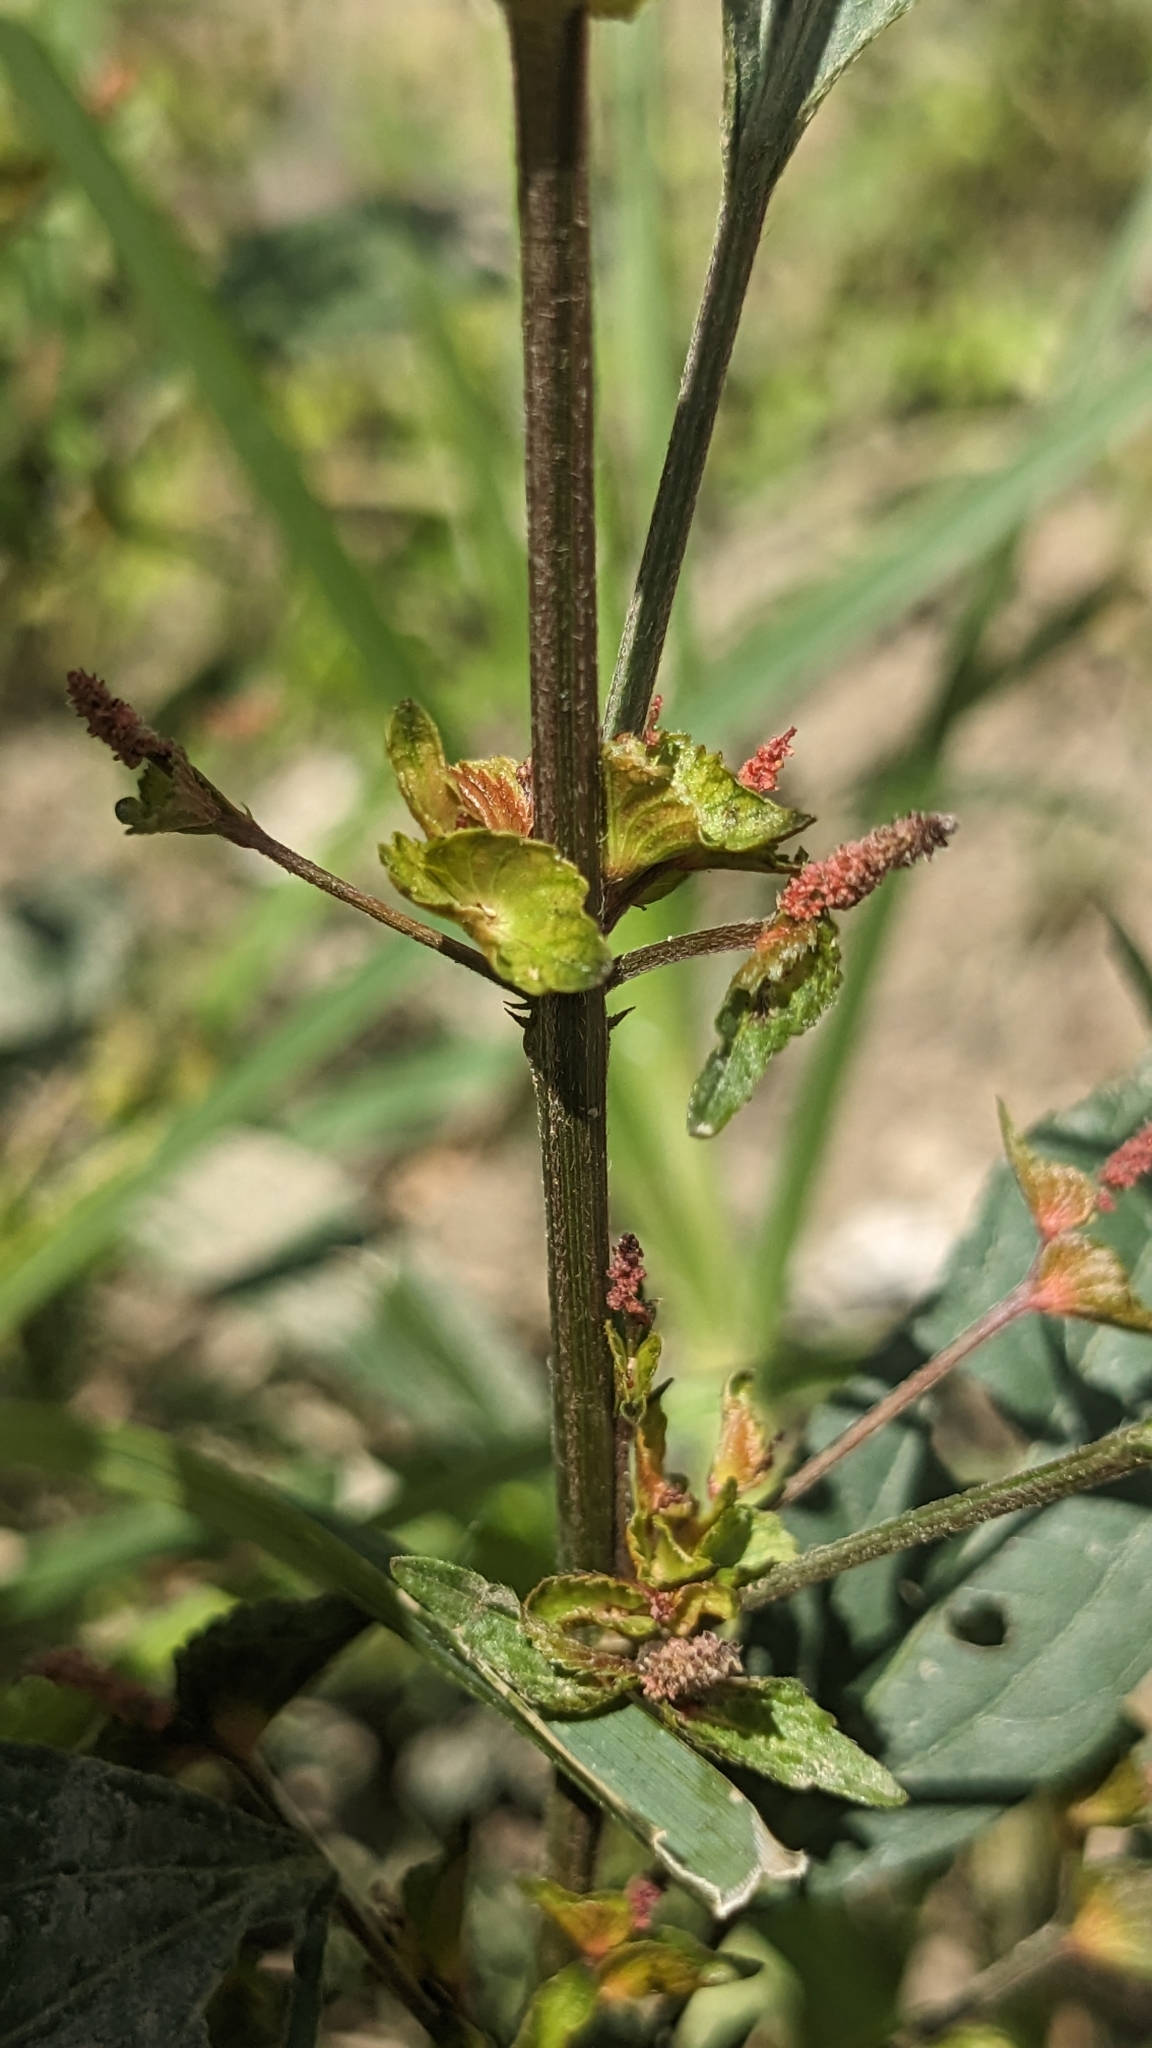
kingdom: Plantae
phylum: Tracheophyta
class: Magnoliopsida
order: Malpighiales
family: Euphorbiaceae
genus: Acalypha
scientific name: Acalypha australis
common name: Asian copperleaf
